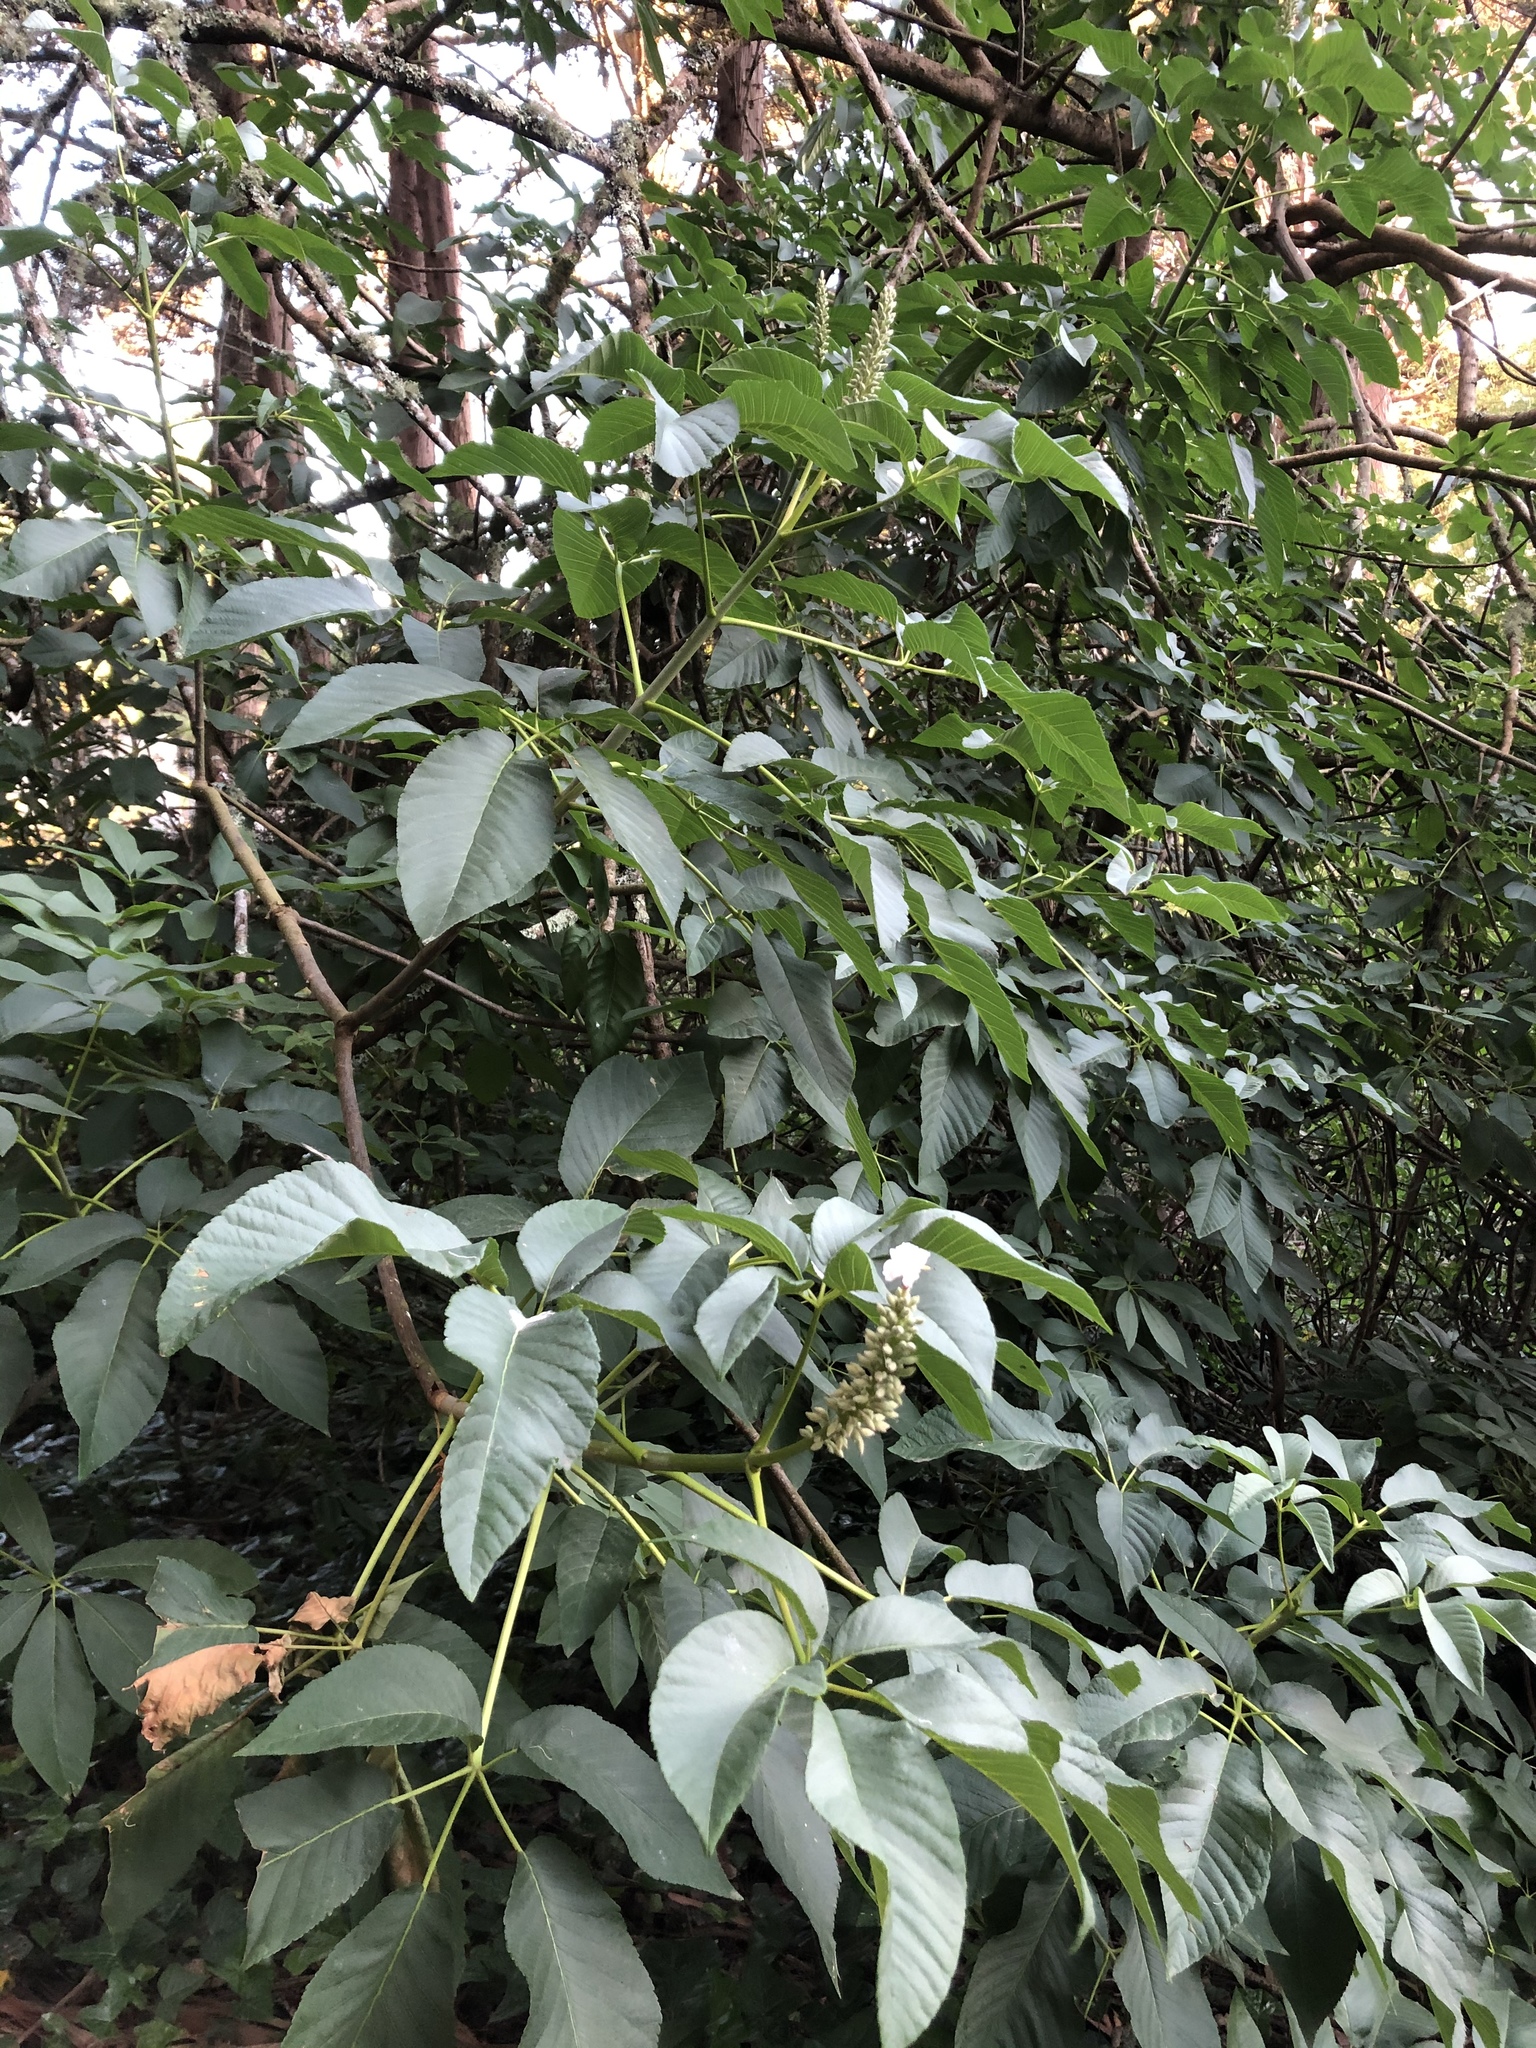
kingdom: Plantae
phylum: Tracheophyta
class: Magnoliopsida
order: Sapindales
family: Sapindaceae
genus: Aesculus
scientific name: Aesculus californica
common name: California buckeye
